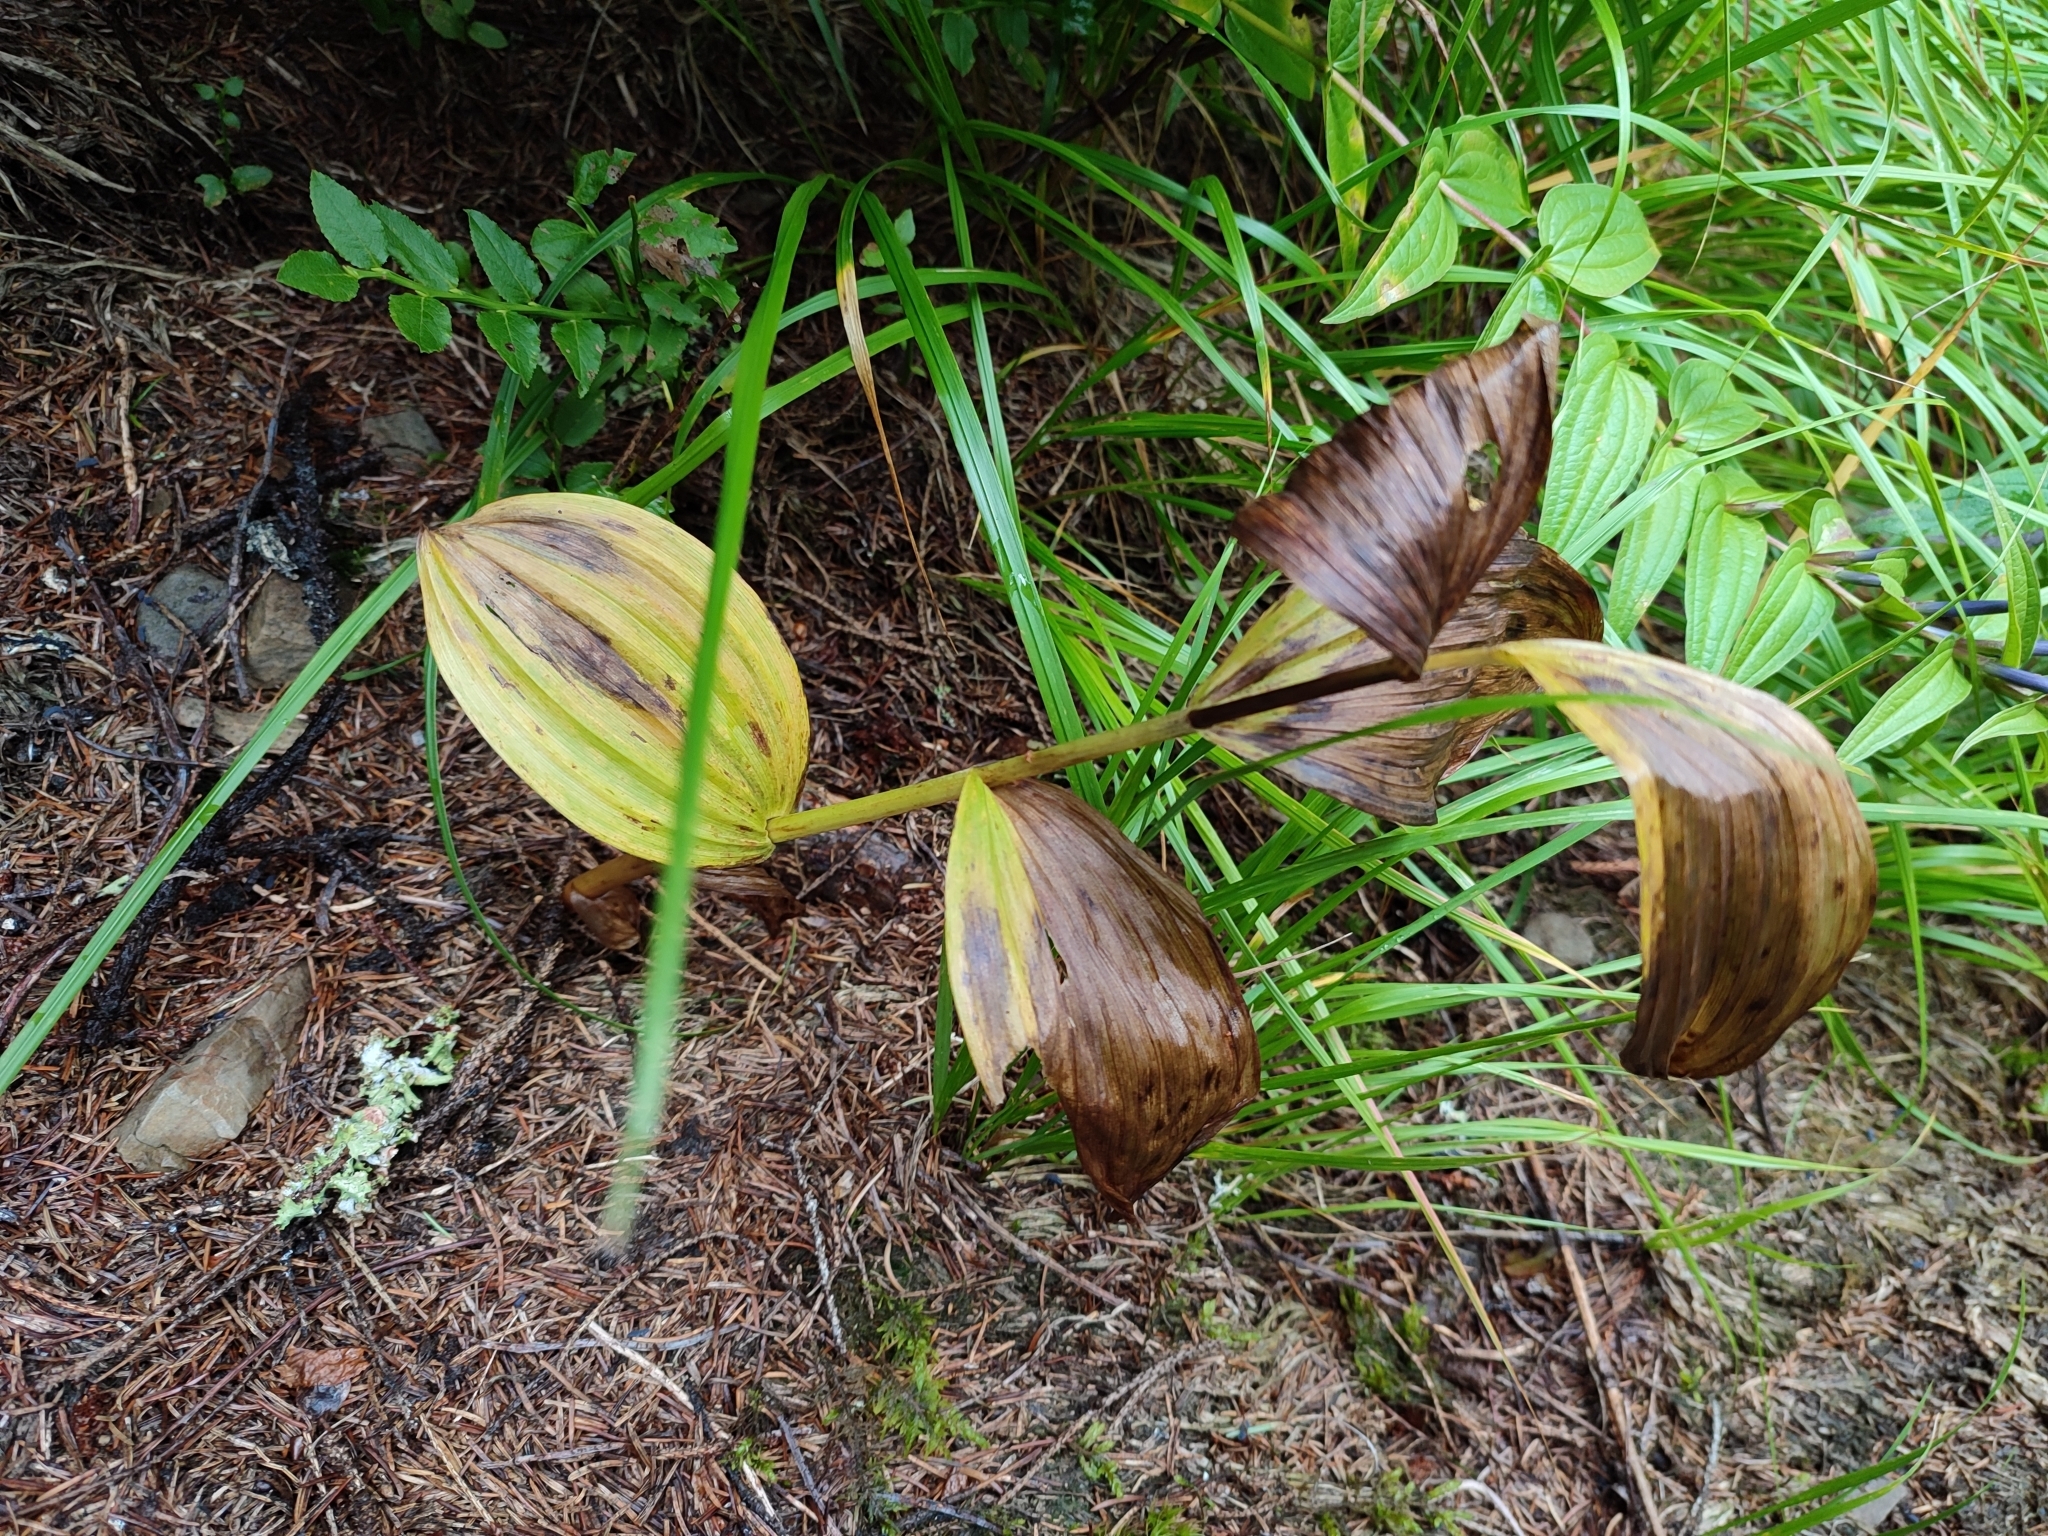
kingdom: Plantae
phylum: Tracheophyta
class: Liliopsida
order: Liliales
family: Melanthiaceae
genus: Veratrum
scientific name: Veratrum album
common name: White veratrum
